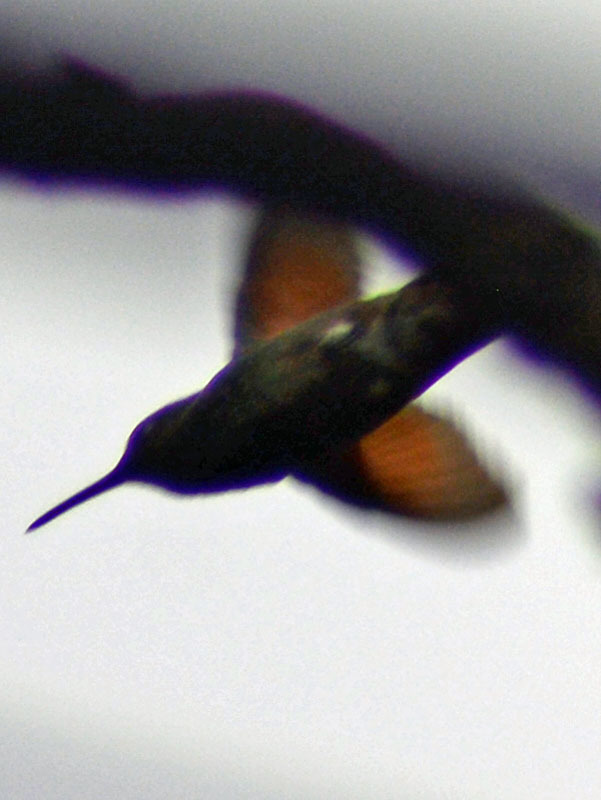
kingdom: Animalia
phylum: Chordata
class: Aves
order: Apodiformes
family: Trochilidae
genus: Saucerottia
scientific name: Saucerottia beryllina
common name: Berylline hummingbird
